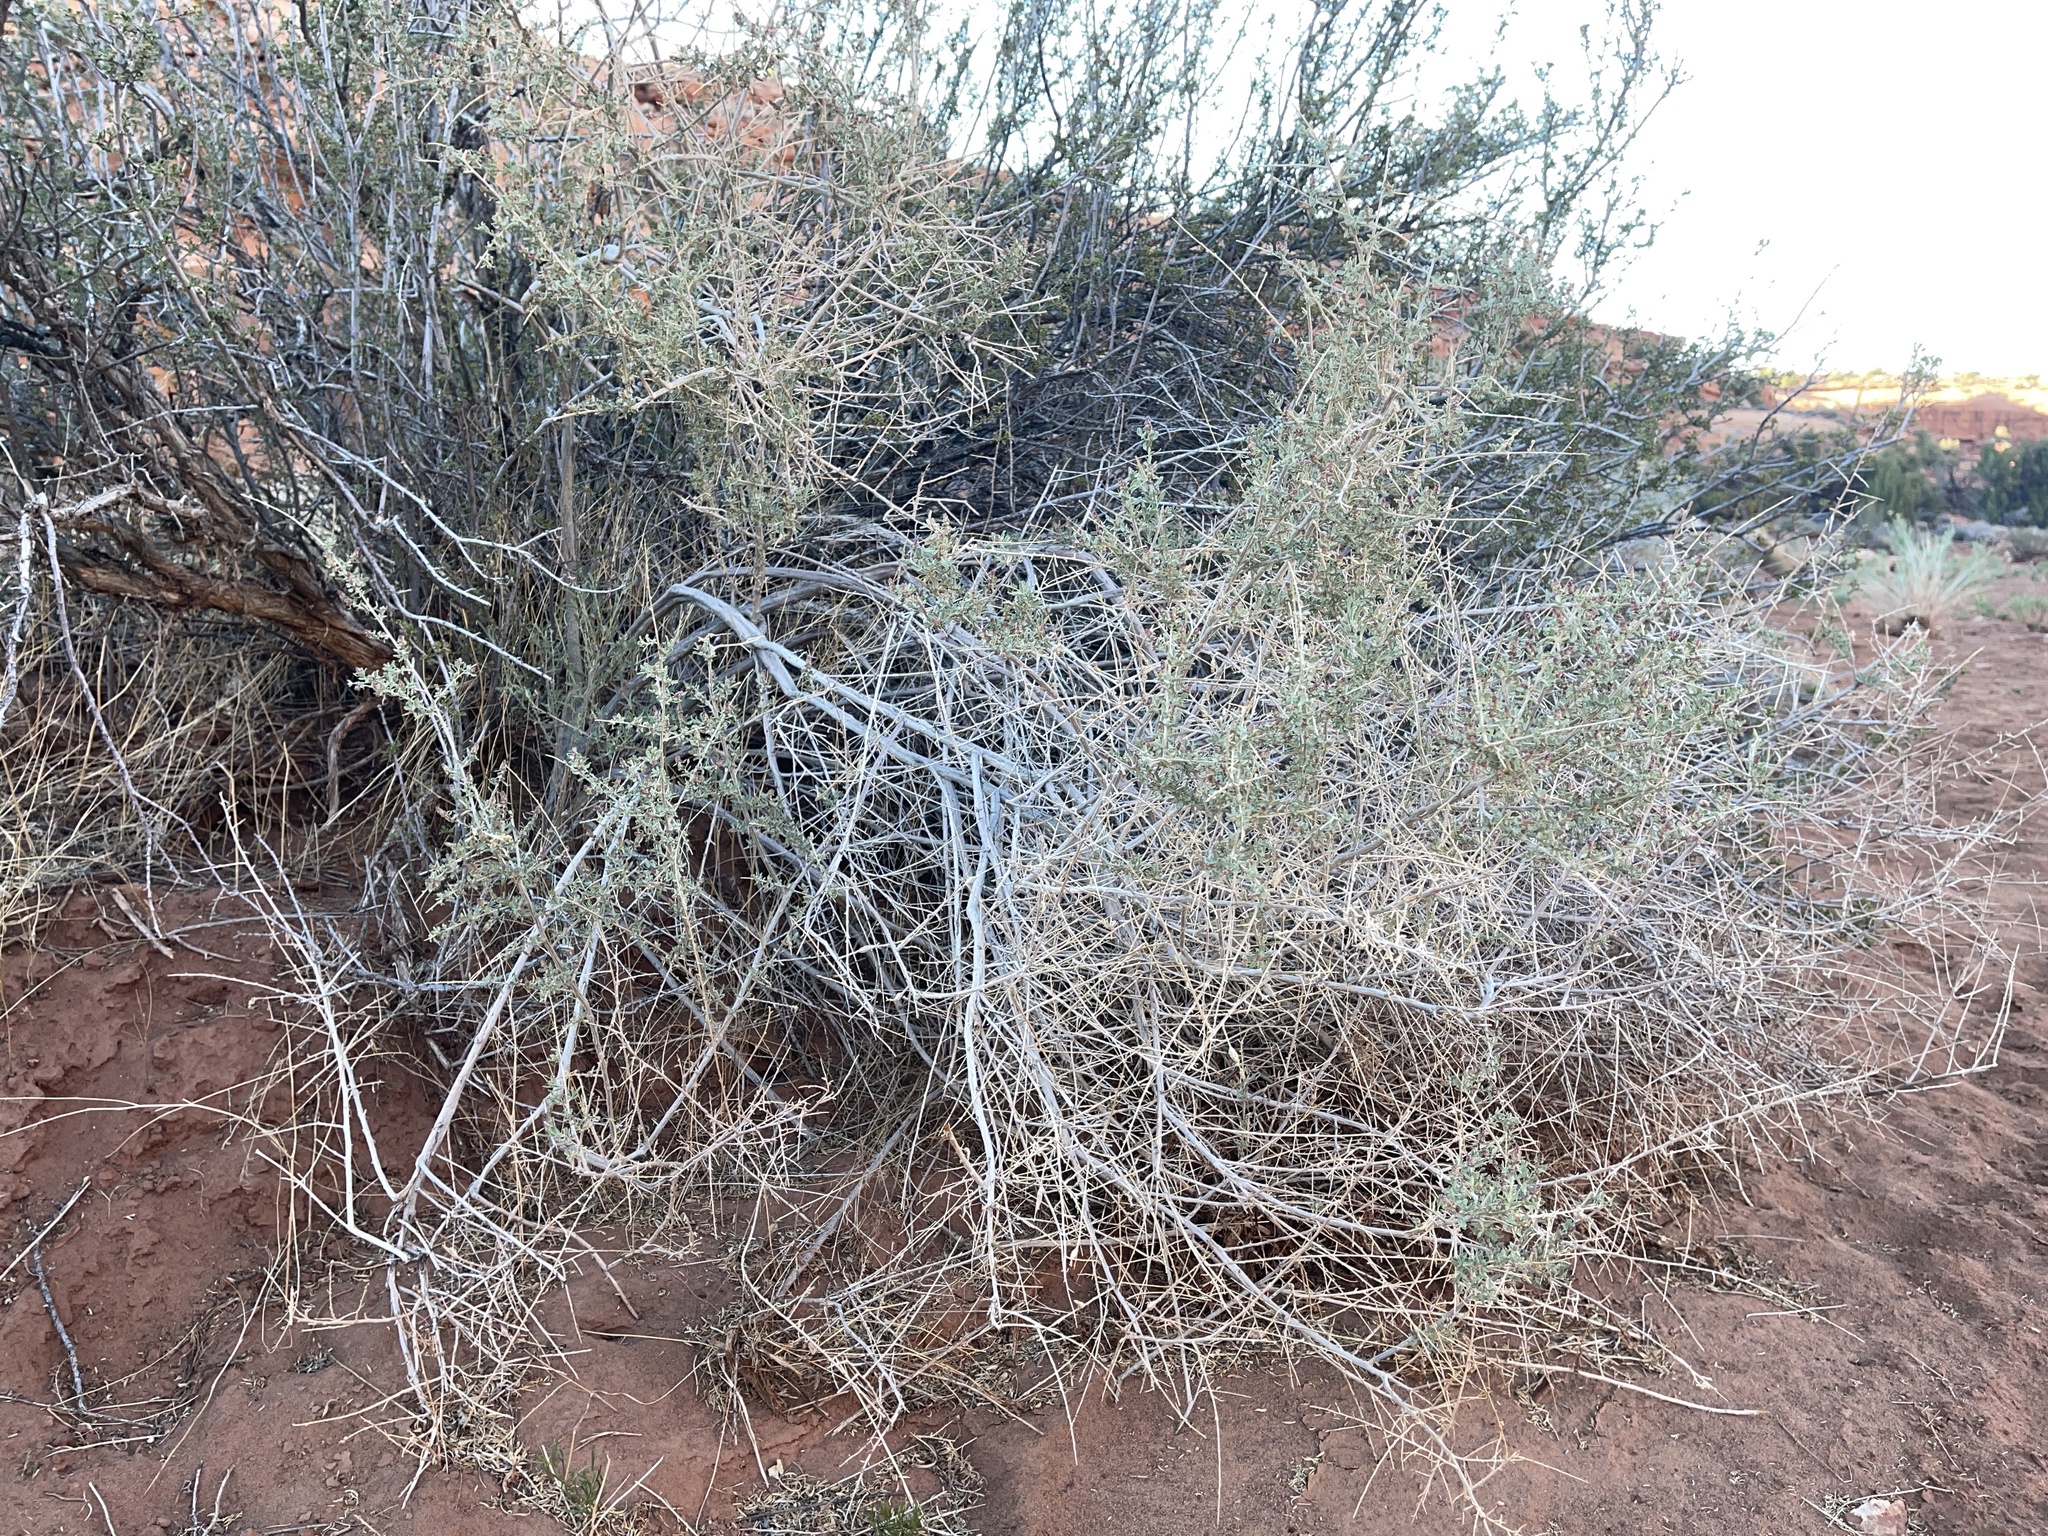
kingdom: Plantae
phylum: Tracheophyta
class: Magnoliopsida
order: Caryophyllales
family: Amaranthaceae
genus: Atriplex
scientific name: Atriplex canescens
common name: Four-wing saltbush
